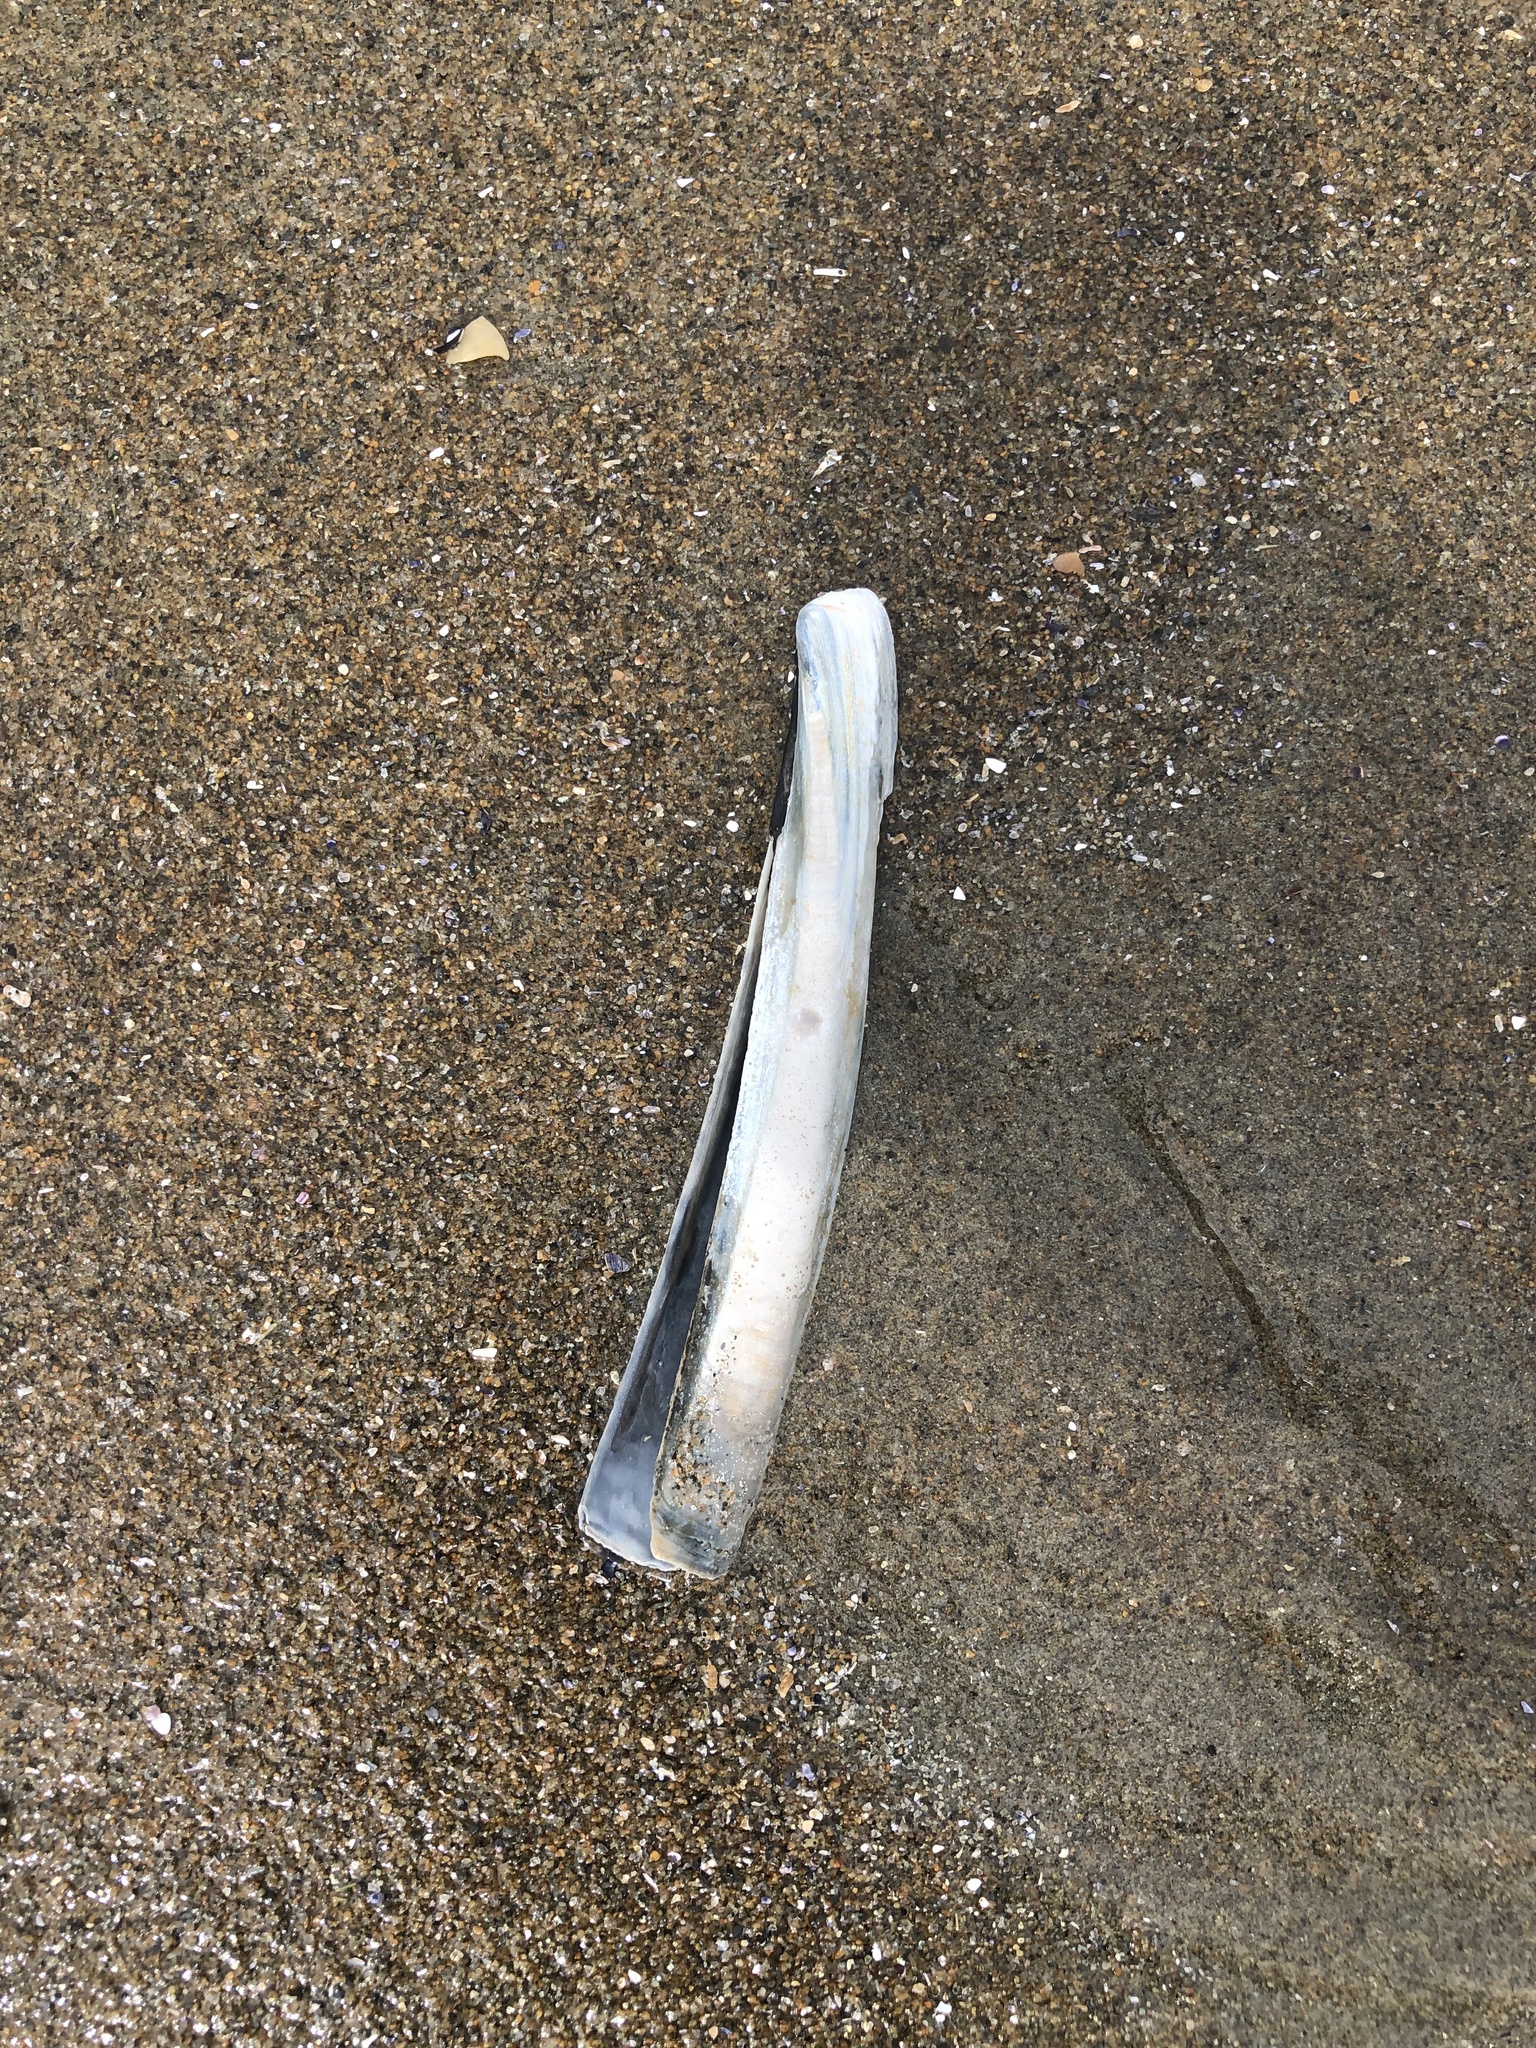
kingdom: Animalia
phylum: Mollusca
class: Bivalvia
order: Adapedonta
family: Pharidae
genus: Ensis
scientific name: Ensis leei
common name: American jack knife clam
